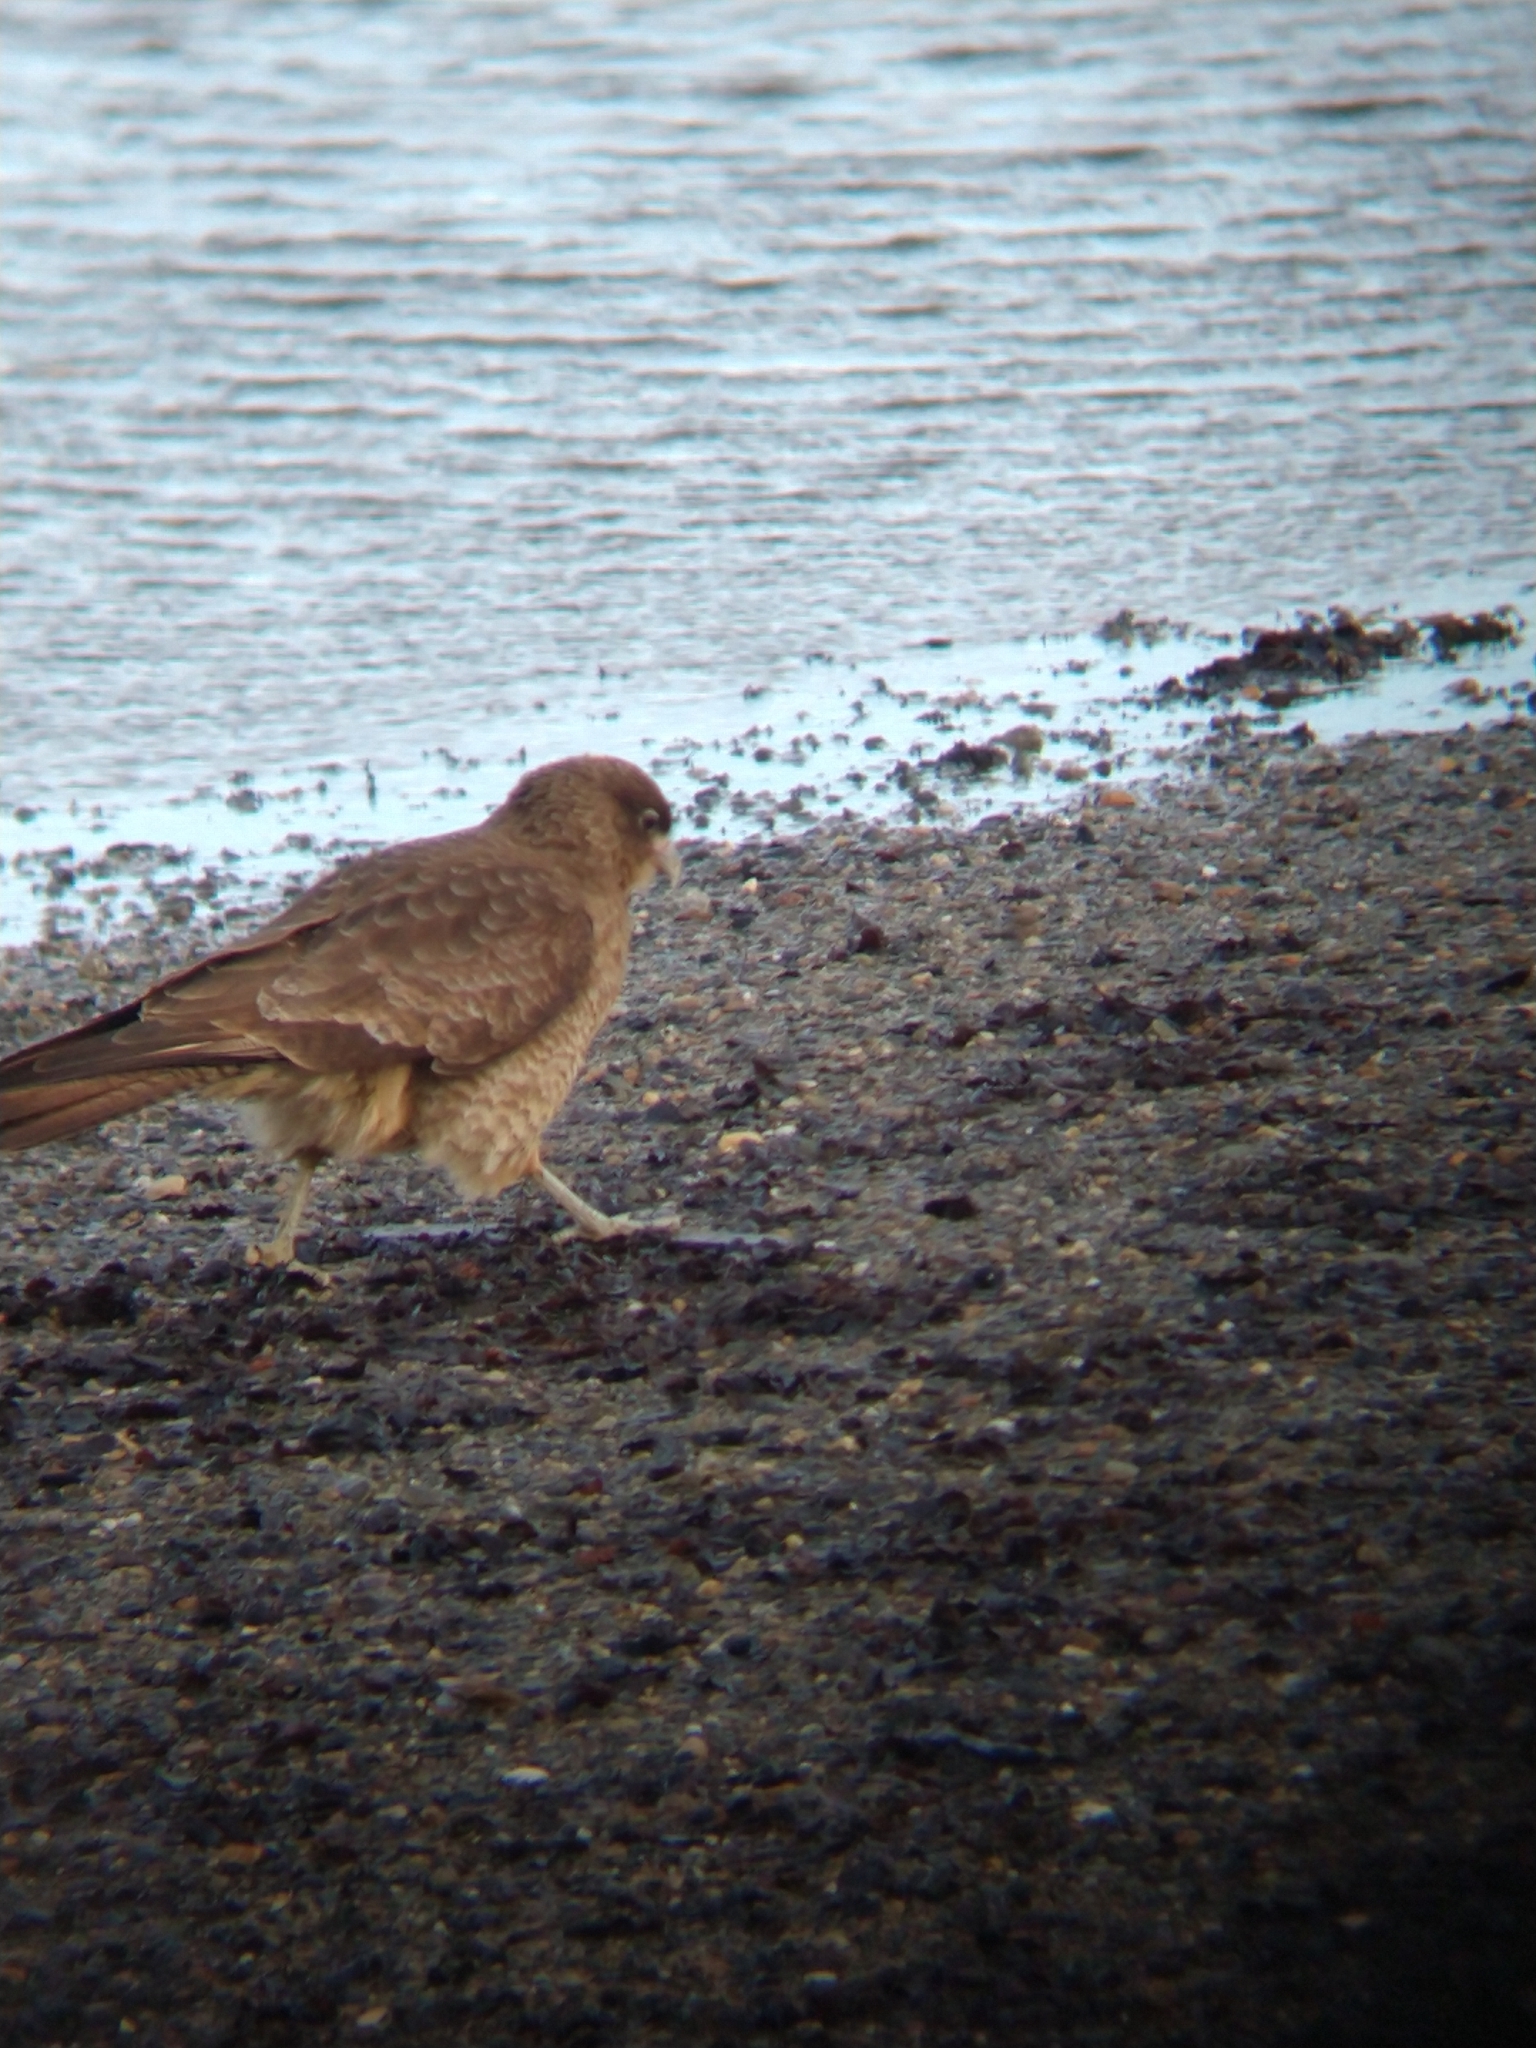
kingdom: Animalia
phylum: Chordata
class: Aves
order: Falconiformes
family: Falconidae
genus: Daptrius
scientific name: Daptrius
